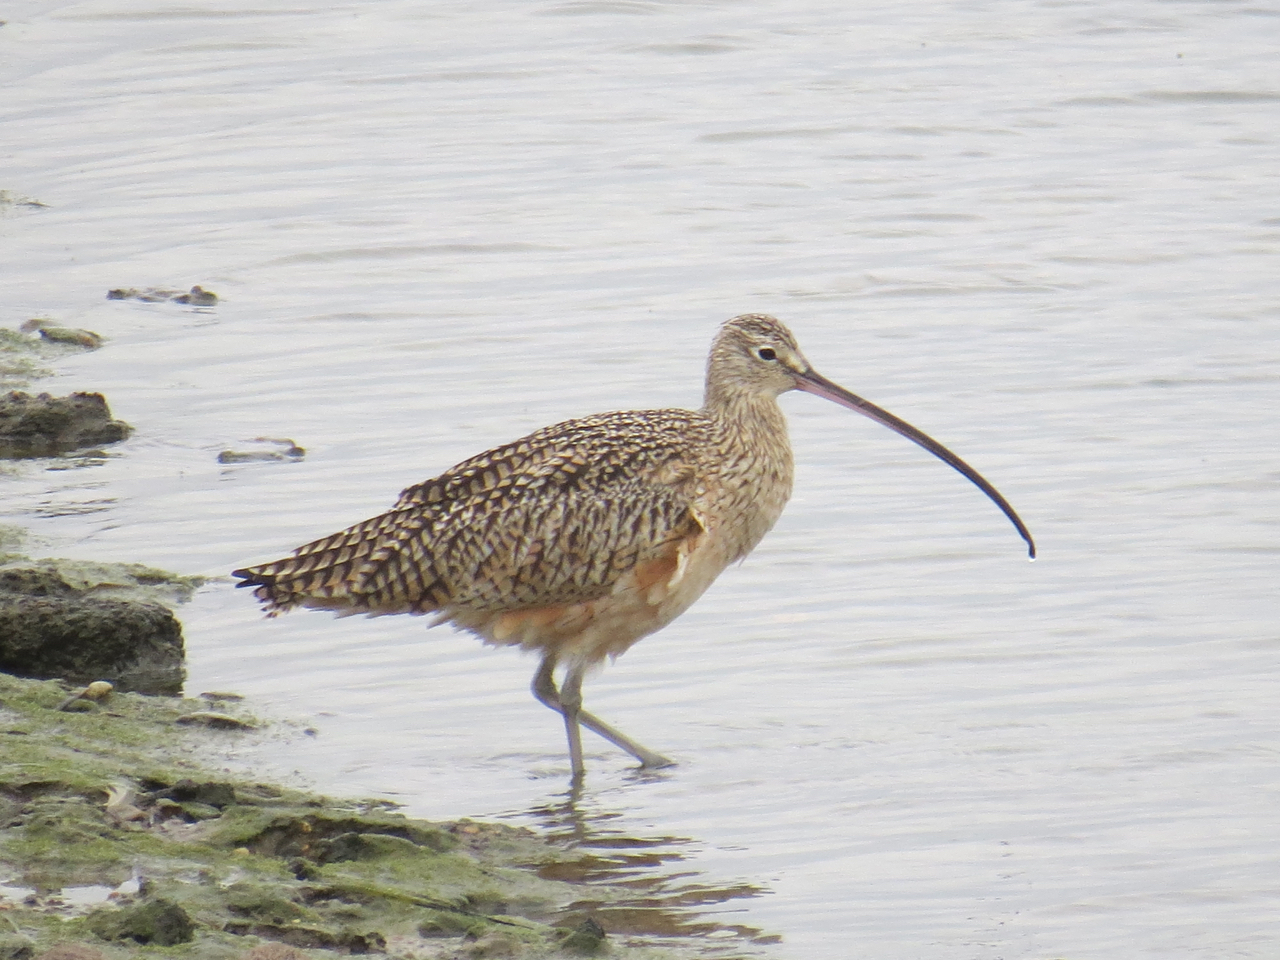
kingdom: Animalia
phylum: Chordata
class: Aves
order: Charadriiformes
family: Scolopacidae
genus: Numenius
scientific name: Numenius americanus
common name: Long-billed curlew
